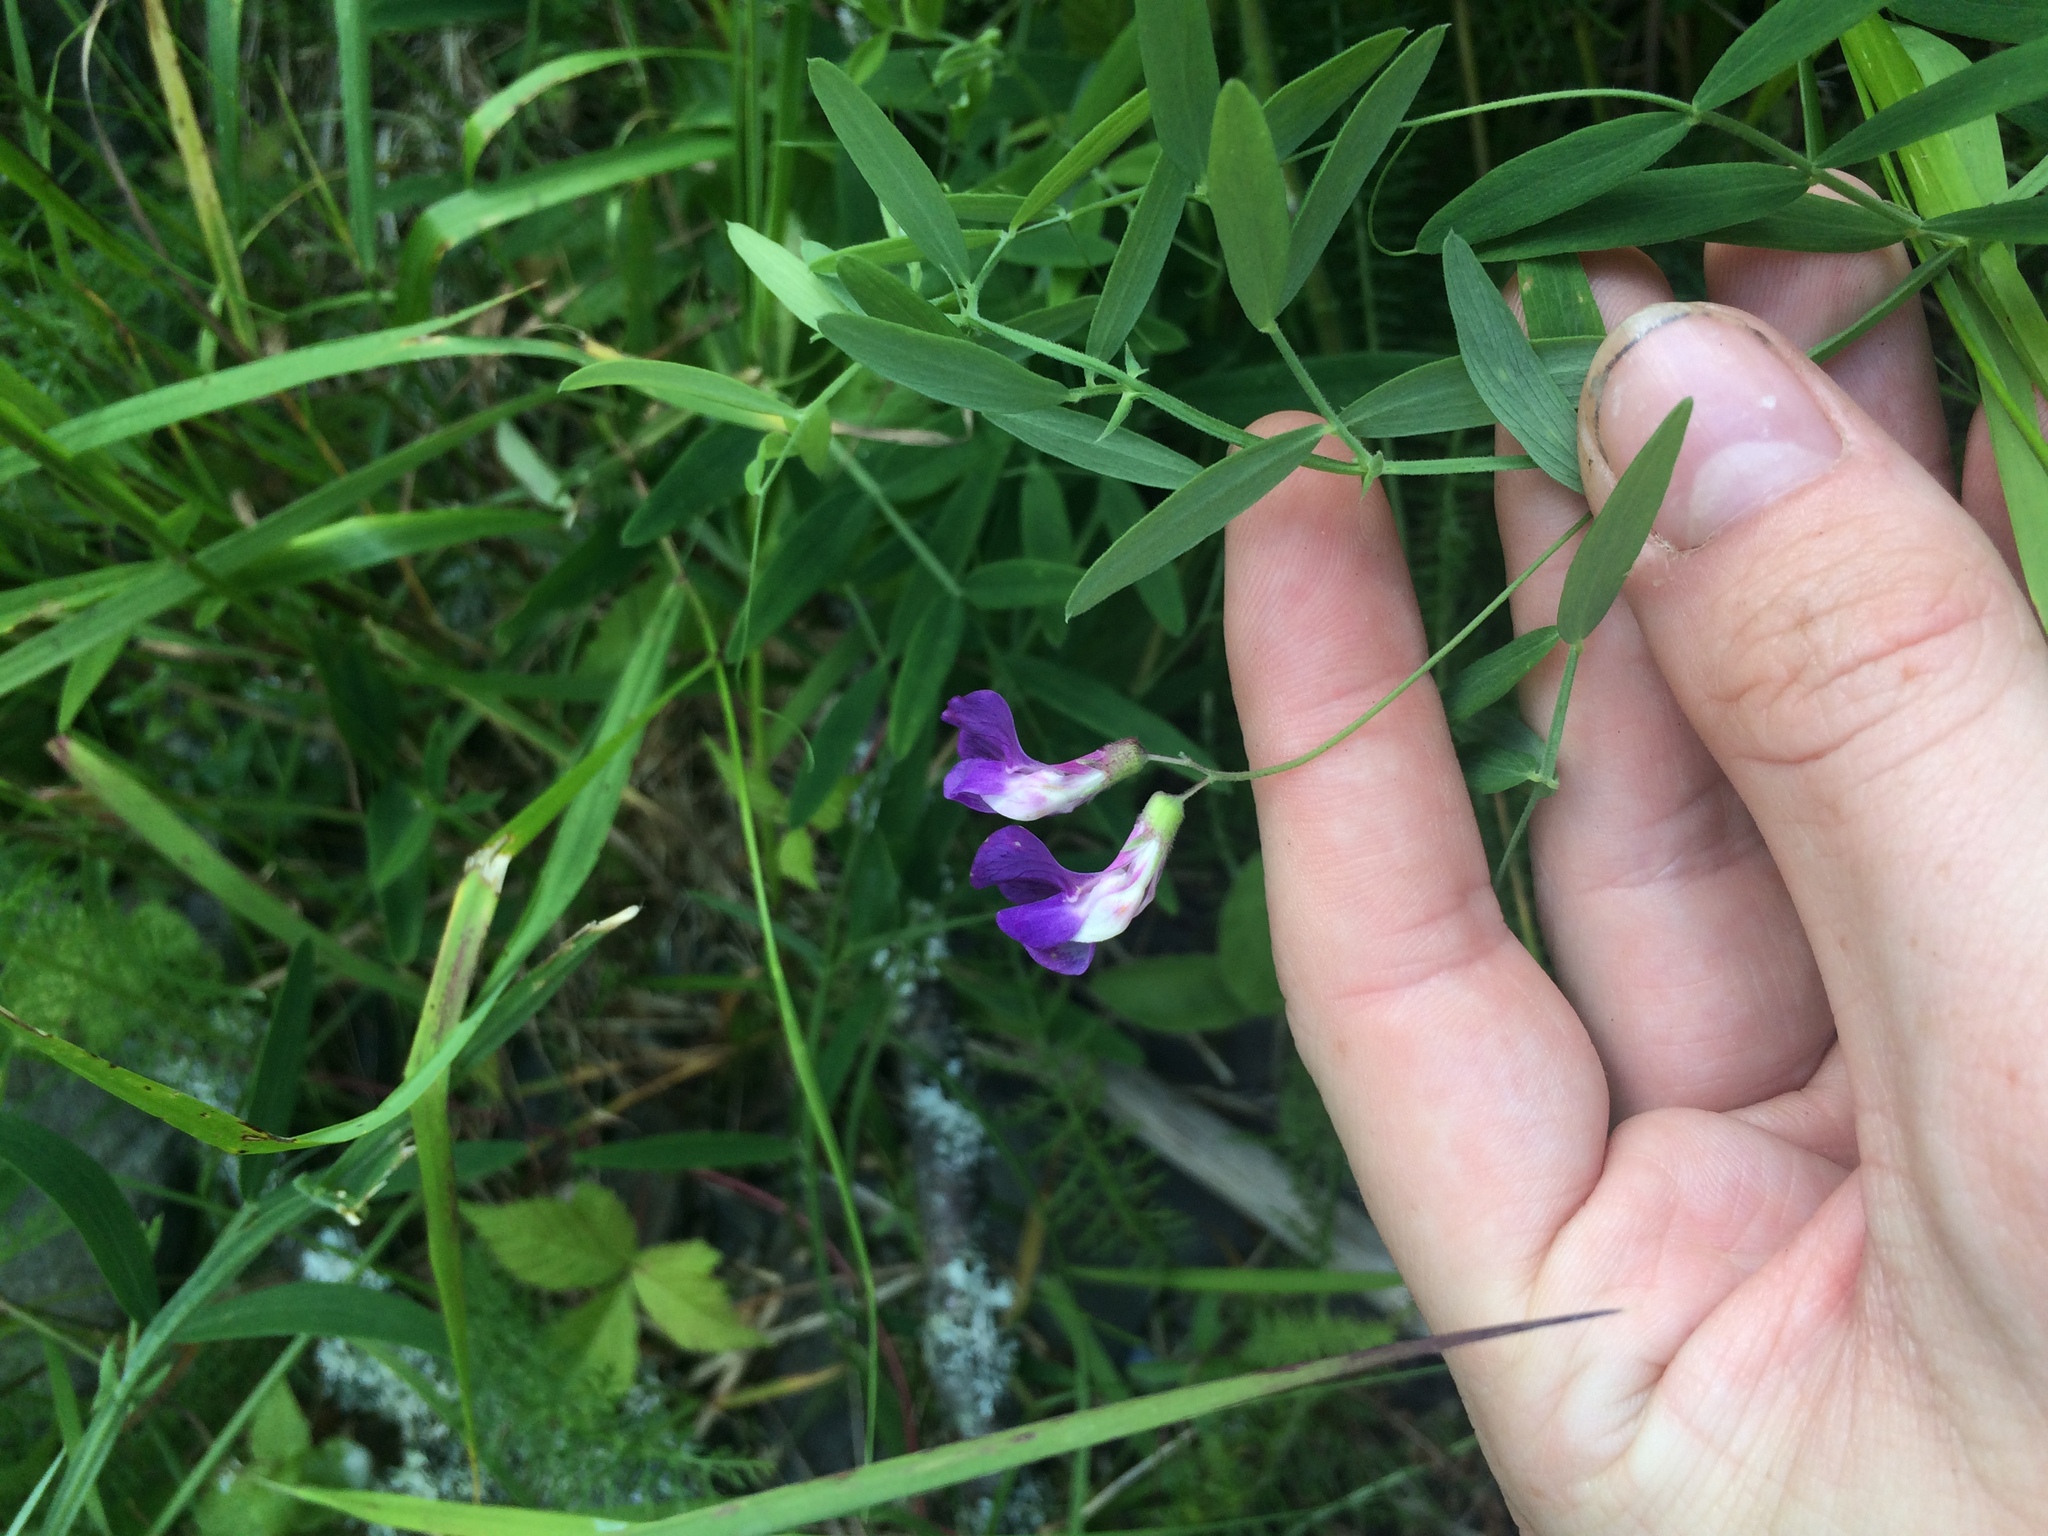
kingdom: Plantae
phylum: Tracheophyta
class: Magnoliopsida
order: Fabales
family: Fabaceae
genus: Lathyrus
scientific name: Lathyrus palustris
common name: Marsh pea
